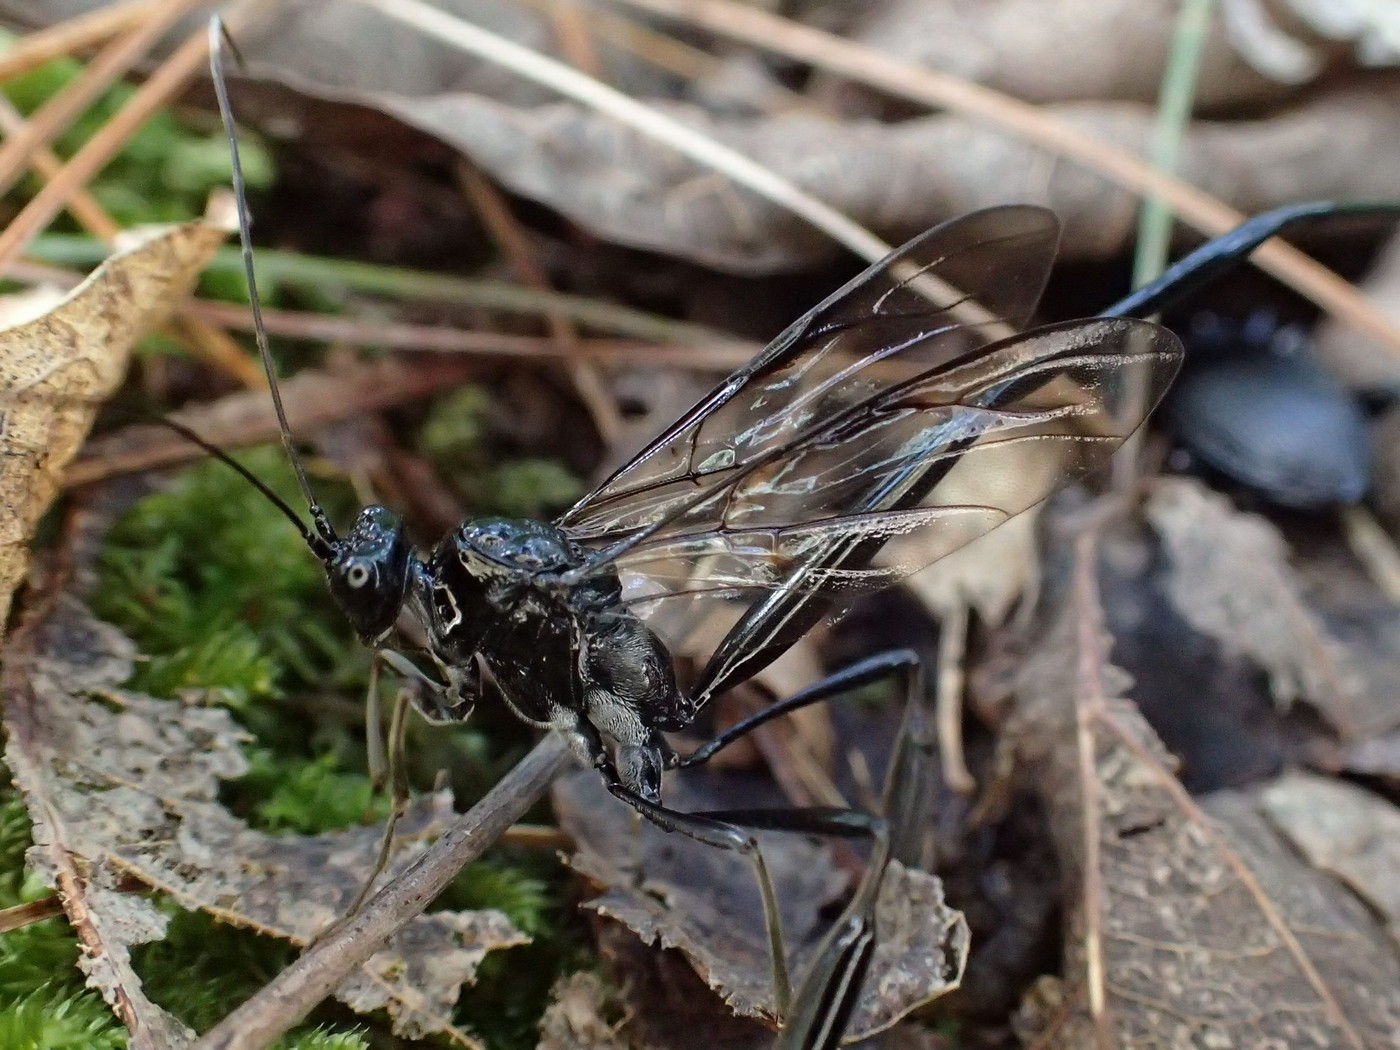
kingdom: Animalia
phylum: Arthropoda
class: Insecta
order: Hymenoptera
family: Pelecinidae
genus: Pelecinus
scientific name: Pelecinus polyturator
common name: American pelecinid wasp
